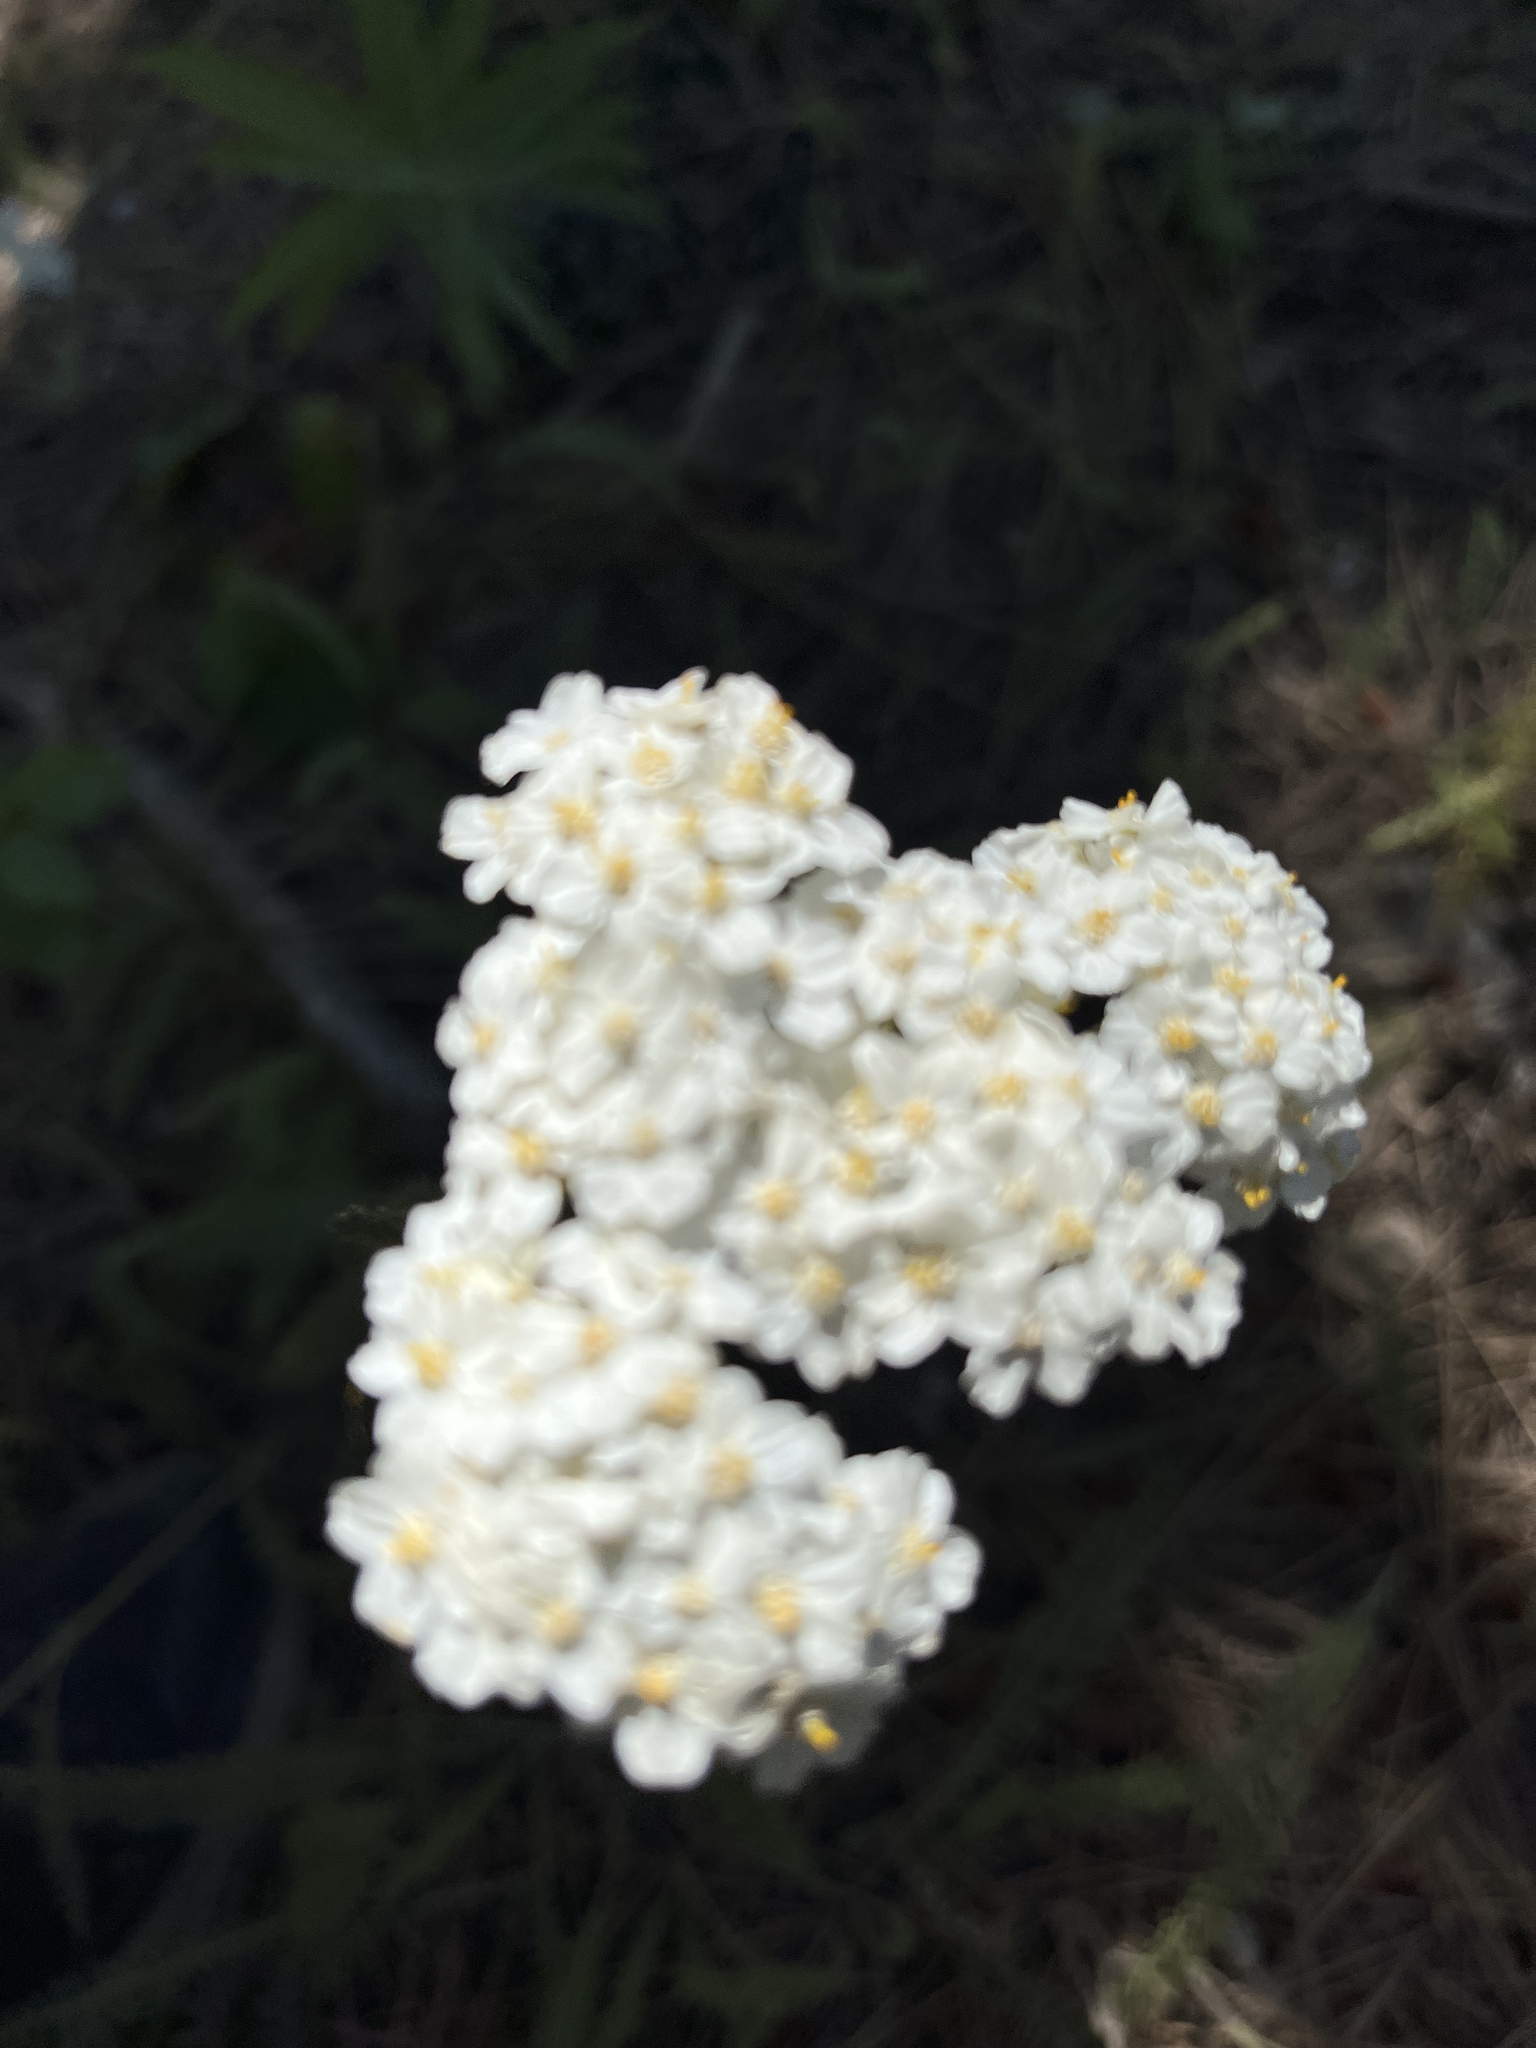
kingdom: Plantae
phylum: Tracheophyta
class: Magnoliopsida
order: Asterales
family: Asteraceae
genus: Achillea
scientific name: Achillea millefolium
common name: Yarrow
